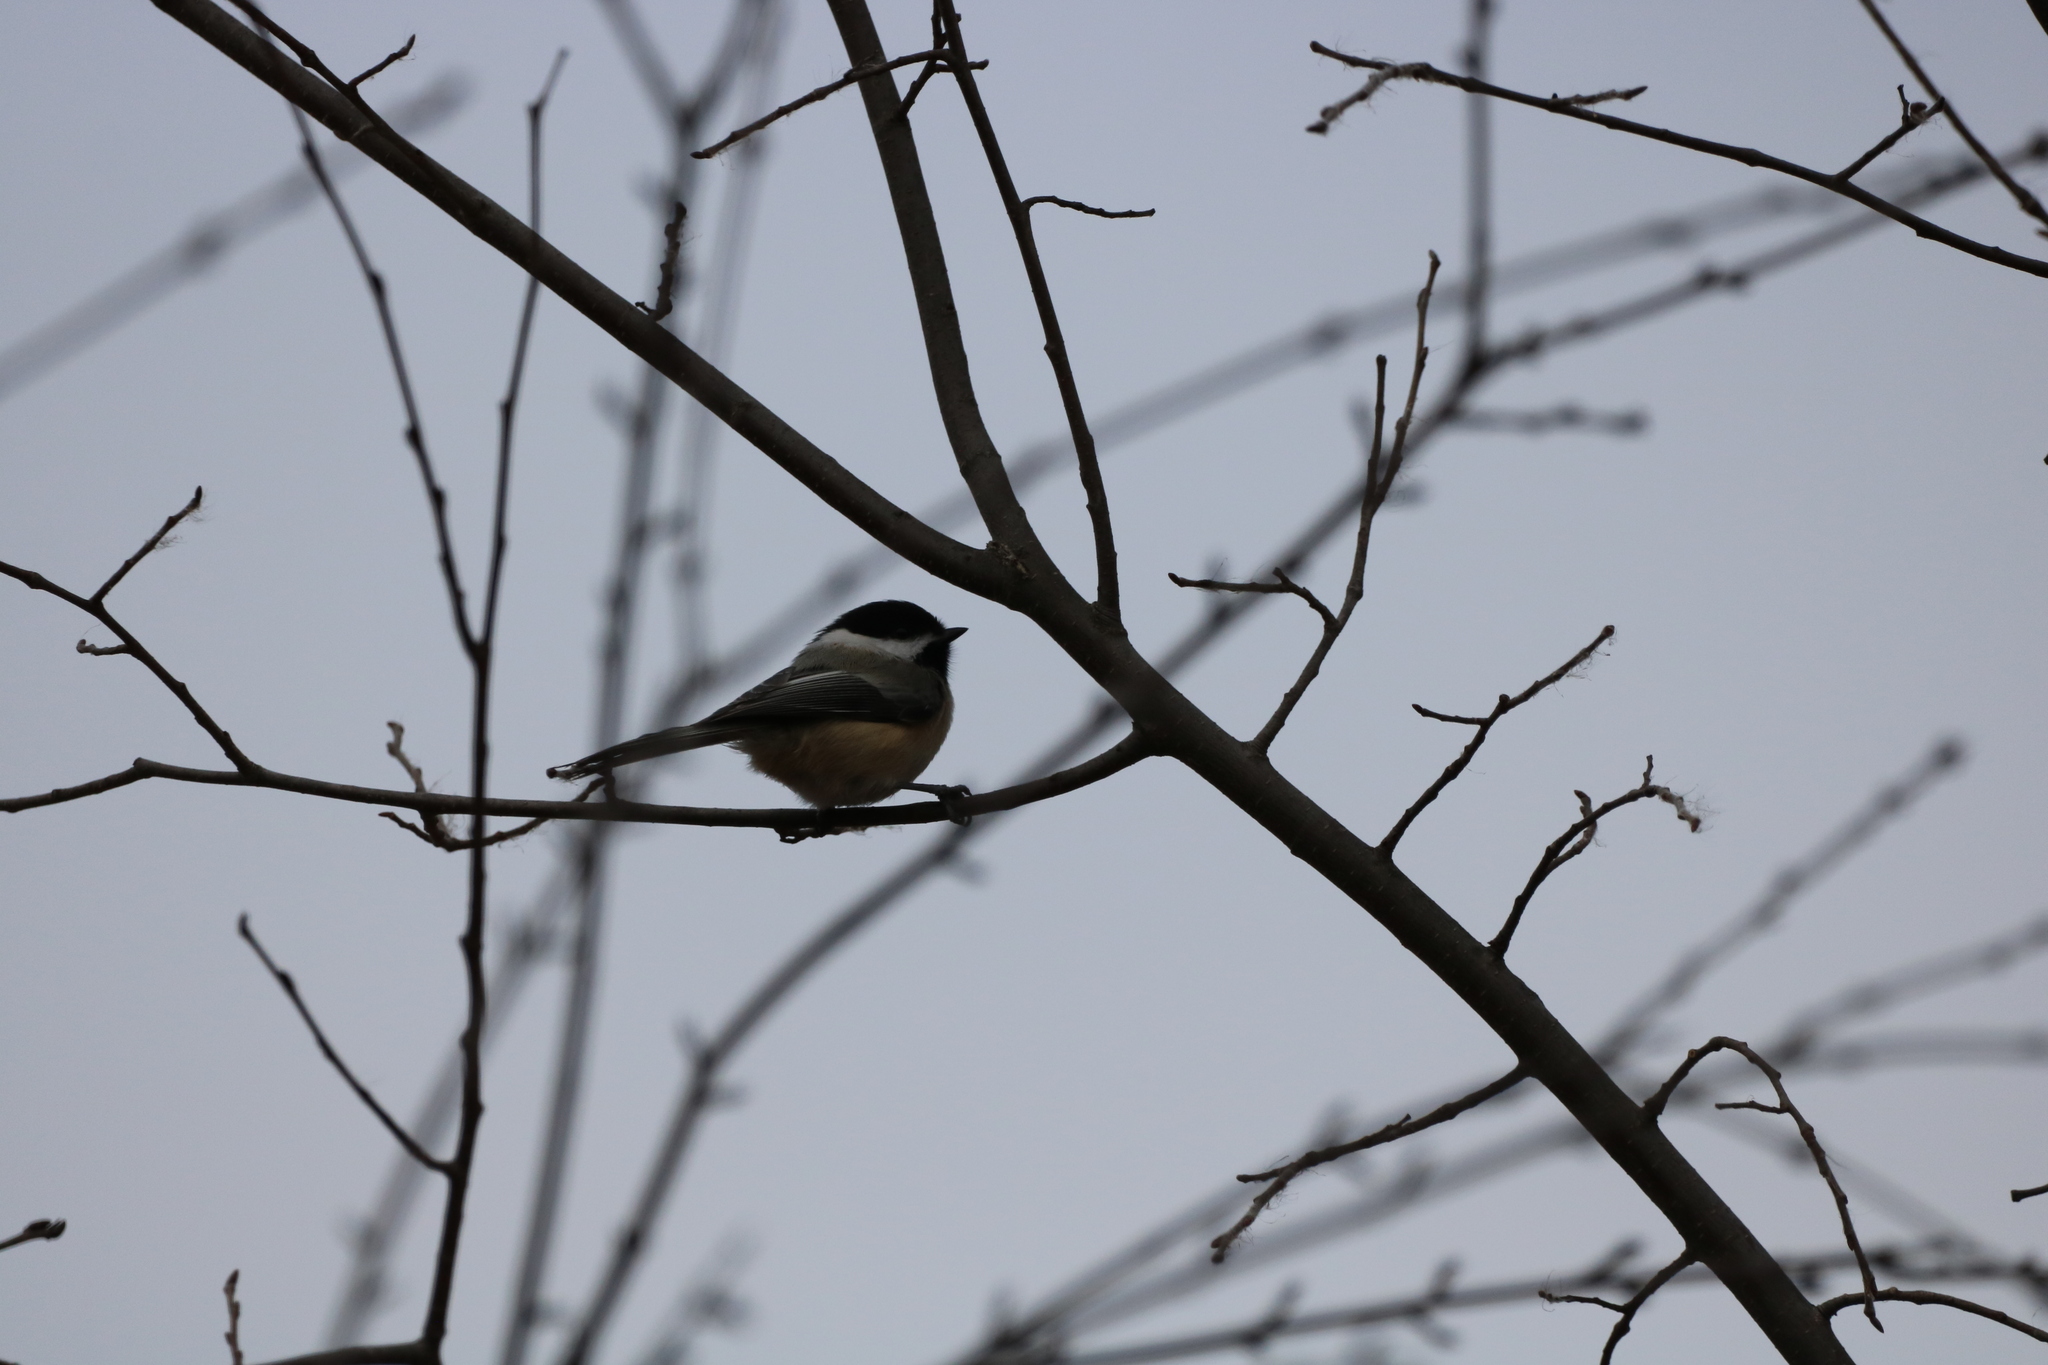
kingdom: Animalia
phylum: Chordata
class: Aves
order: Passeriformes
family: Paridae
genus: Poecile
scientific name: Poecile atricapillus
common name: Black-capped chickadee
